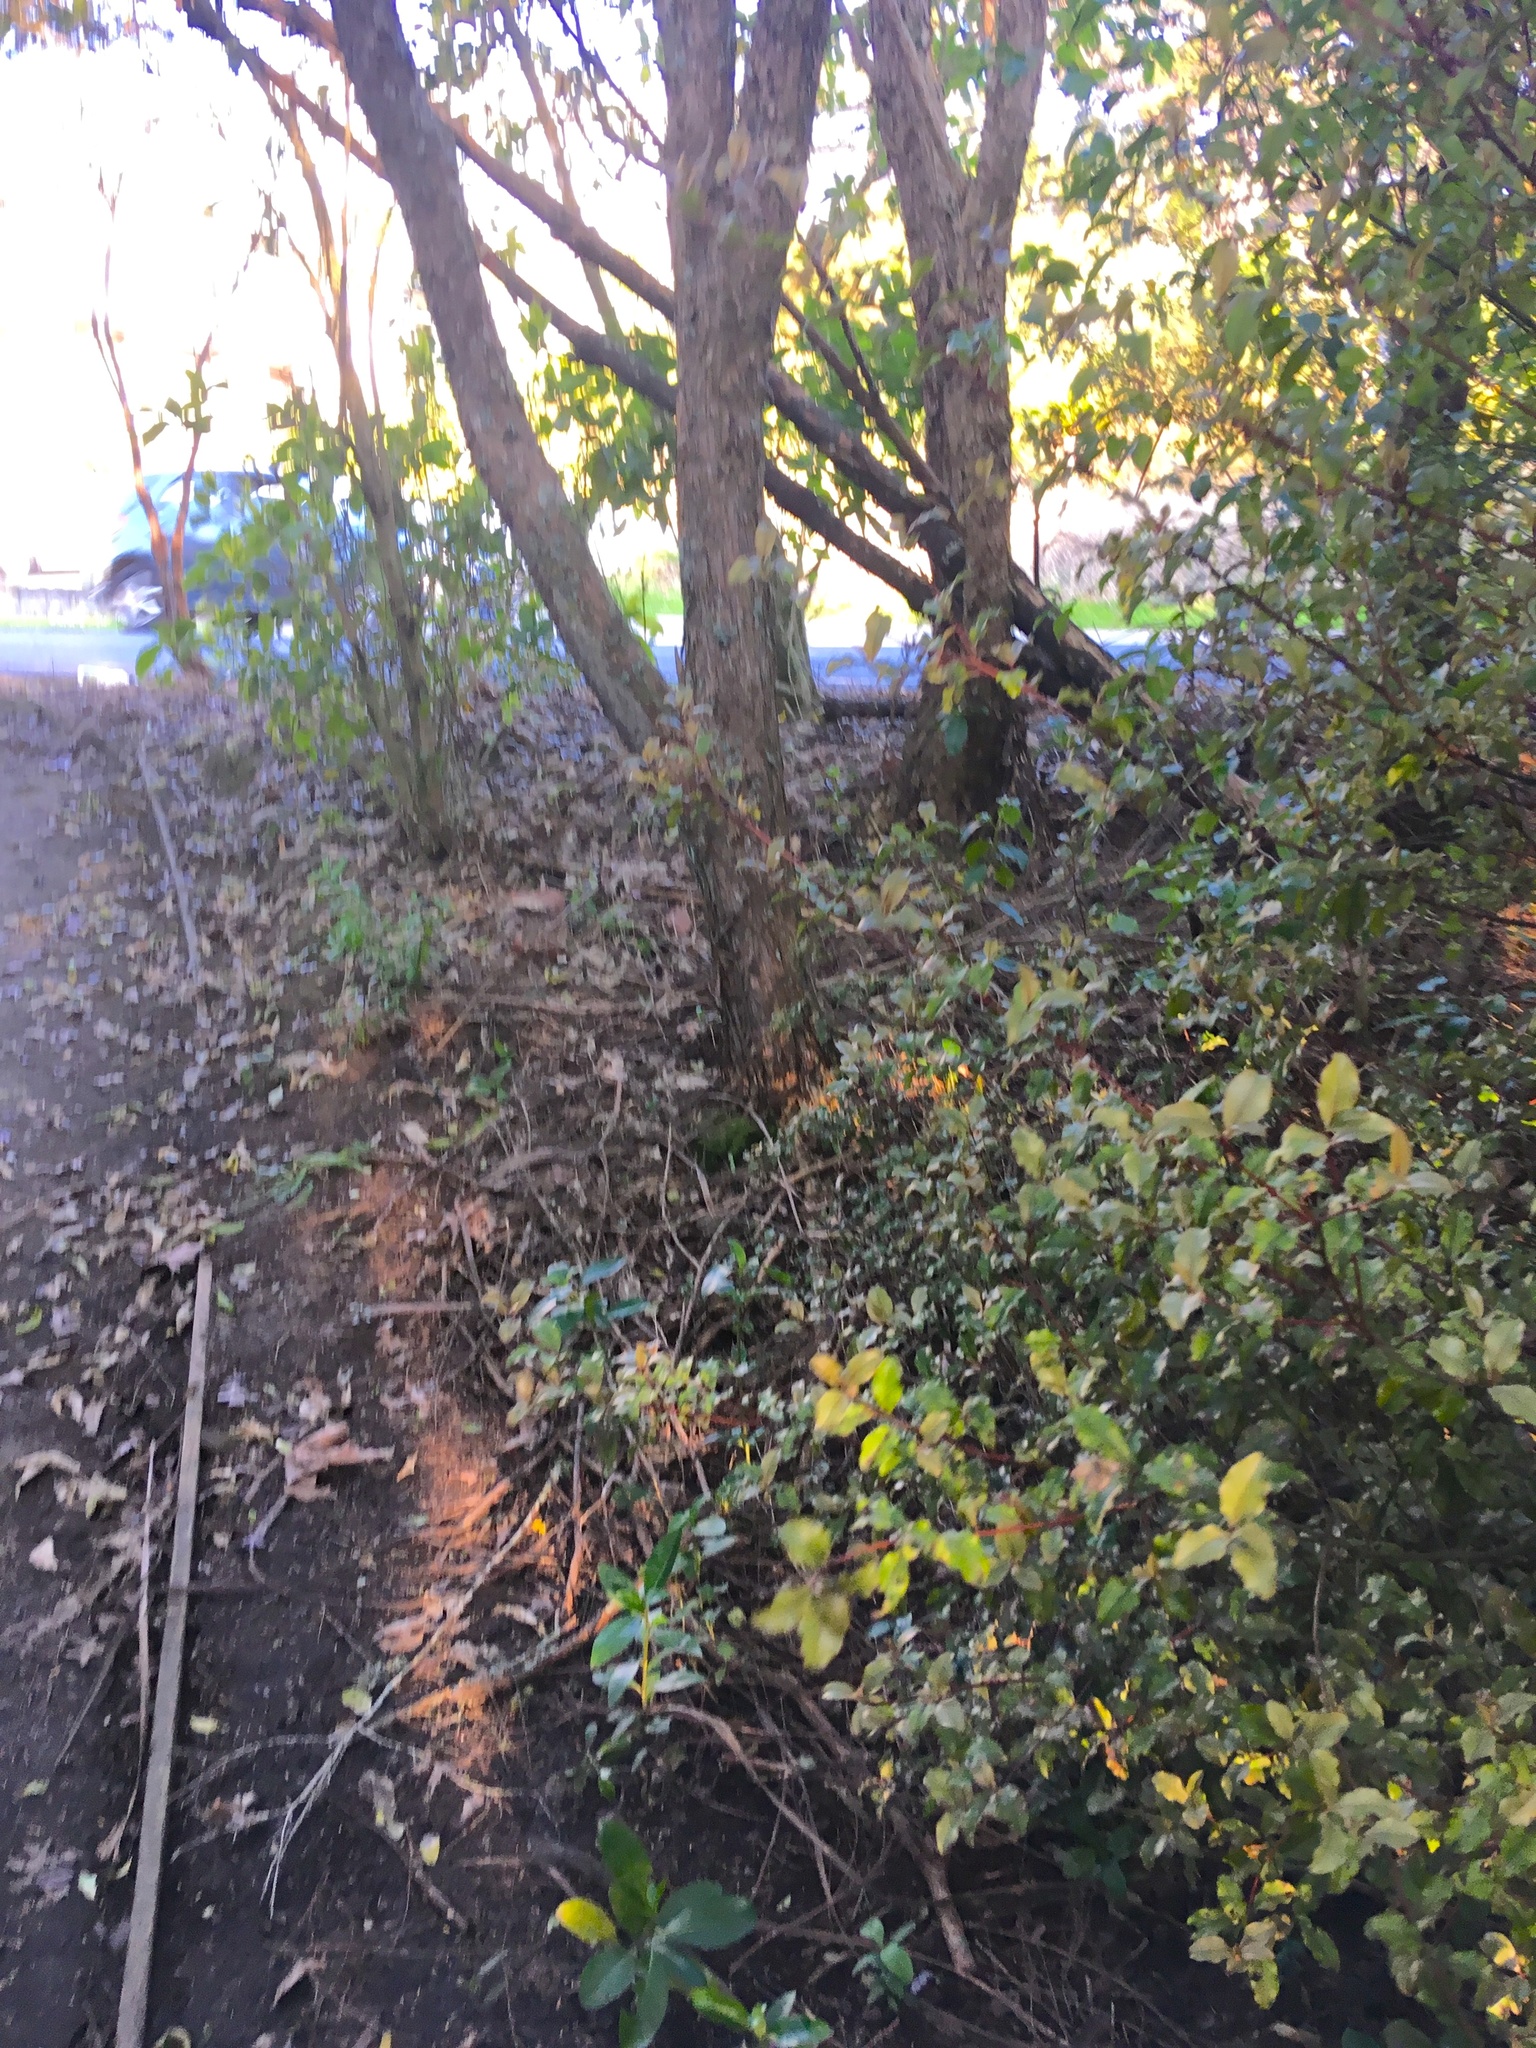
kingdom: Plantae
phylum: Tracheophyta
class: Magnoliopsida
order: Ericales
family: Primulaceae
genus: Myrsine
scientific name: Myrsine australis
